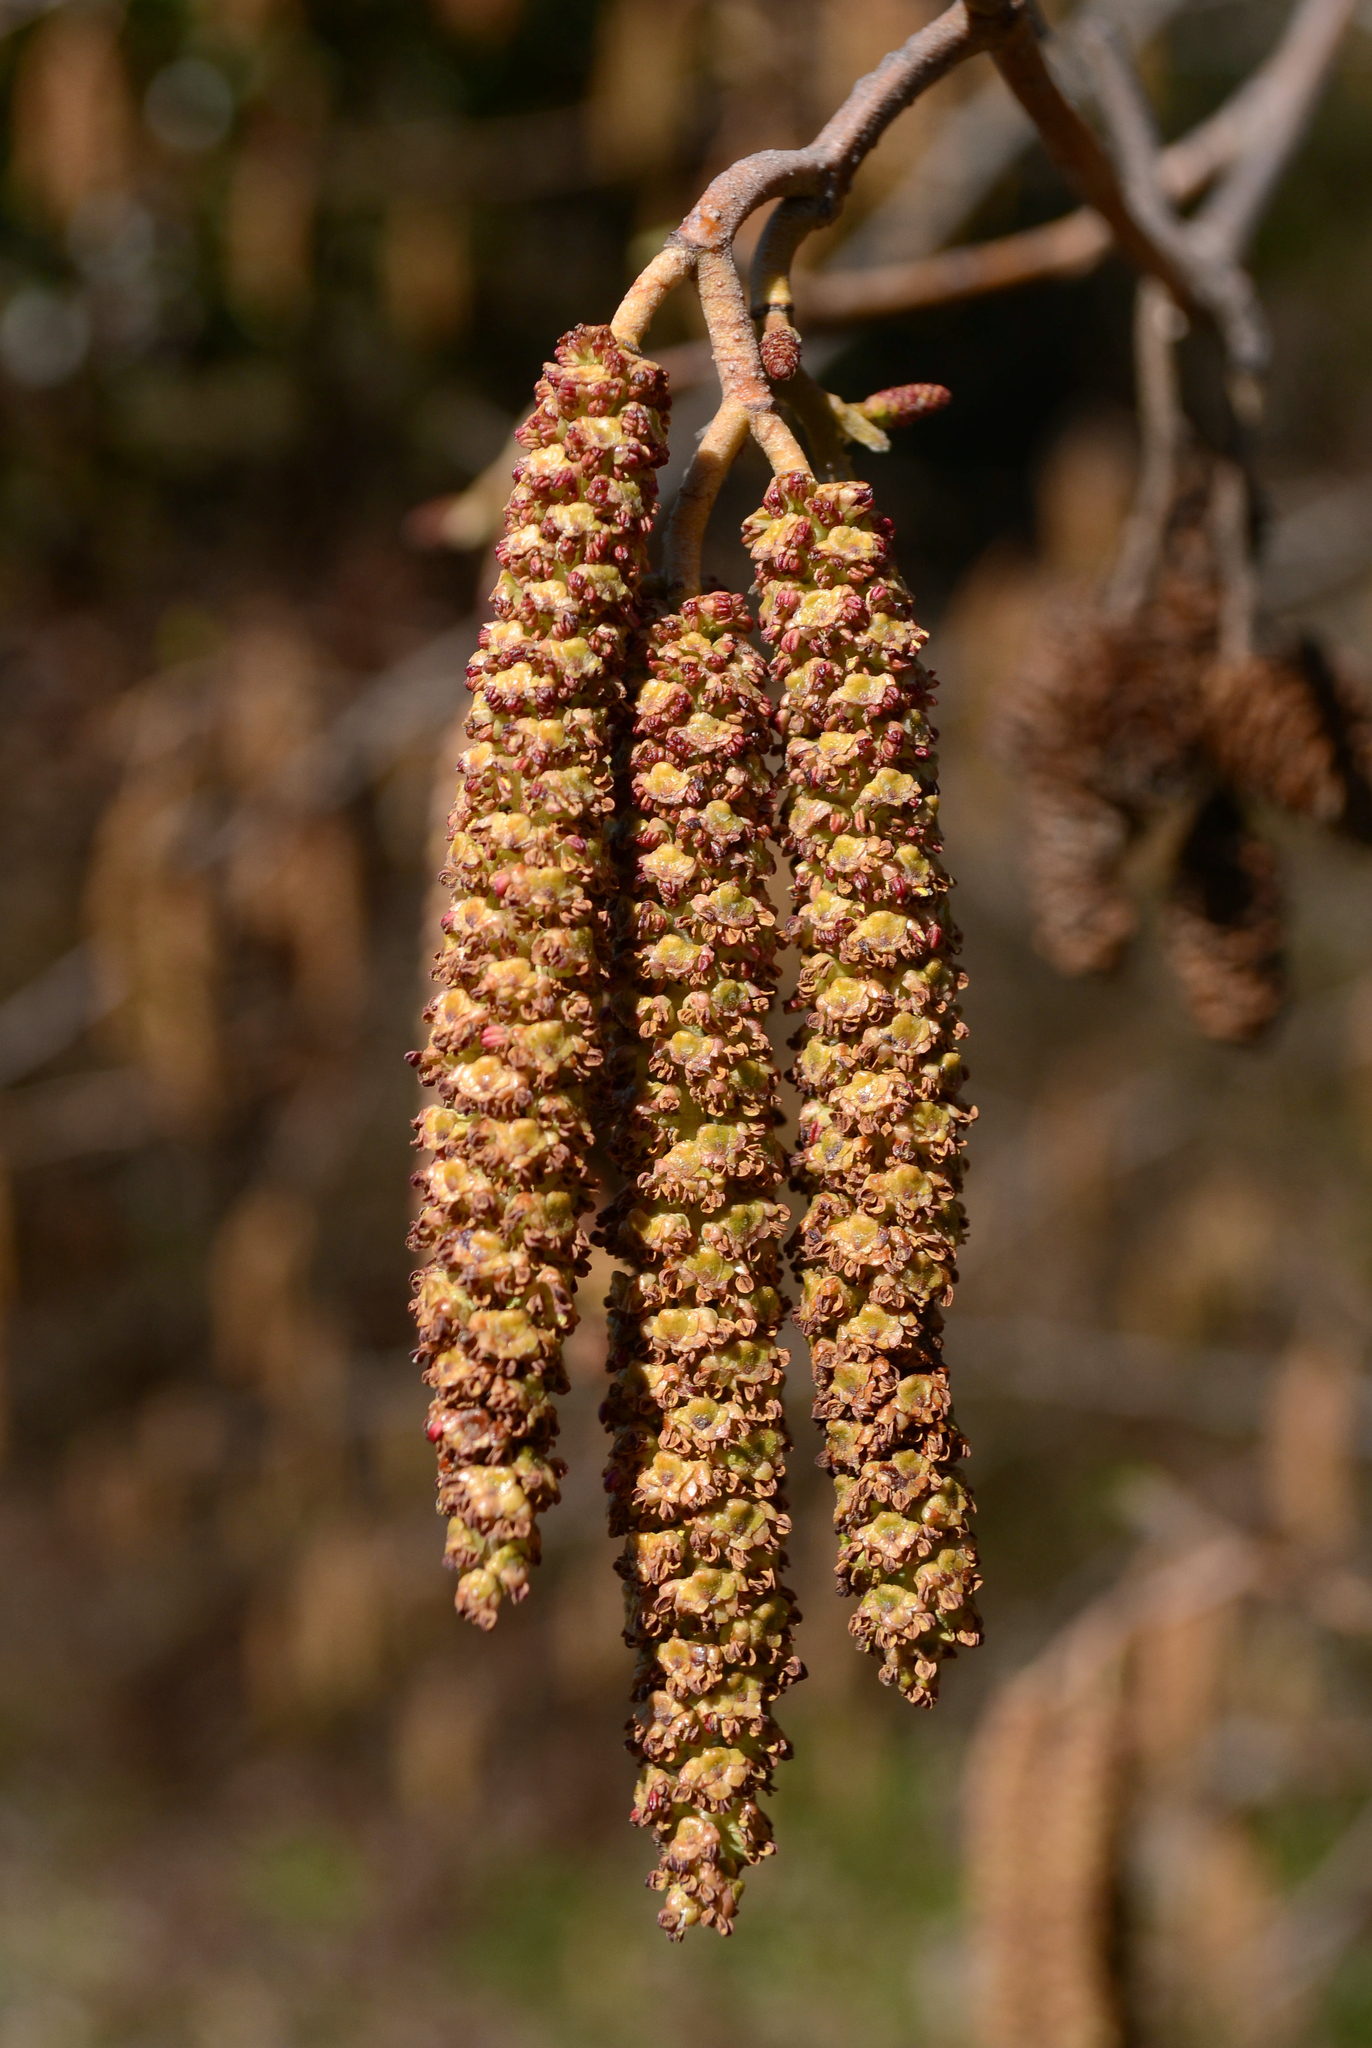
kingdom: Plantae
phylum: Tracheophyta
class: Magnoliopsida
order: Fagales
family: Betulaceae
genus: Alnus
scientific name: Alnus rubra
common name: Red alder
